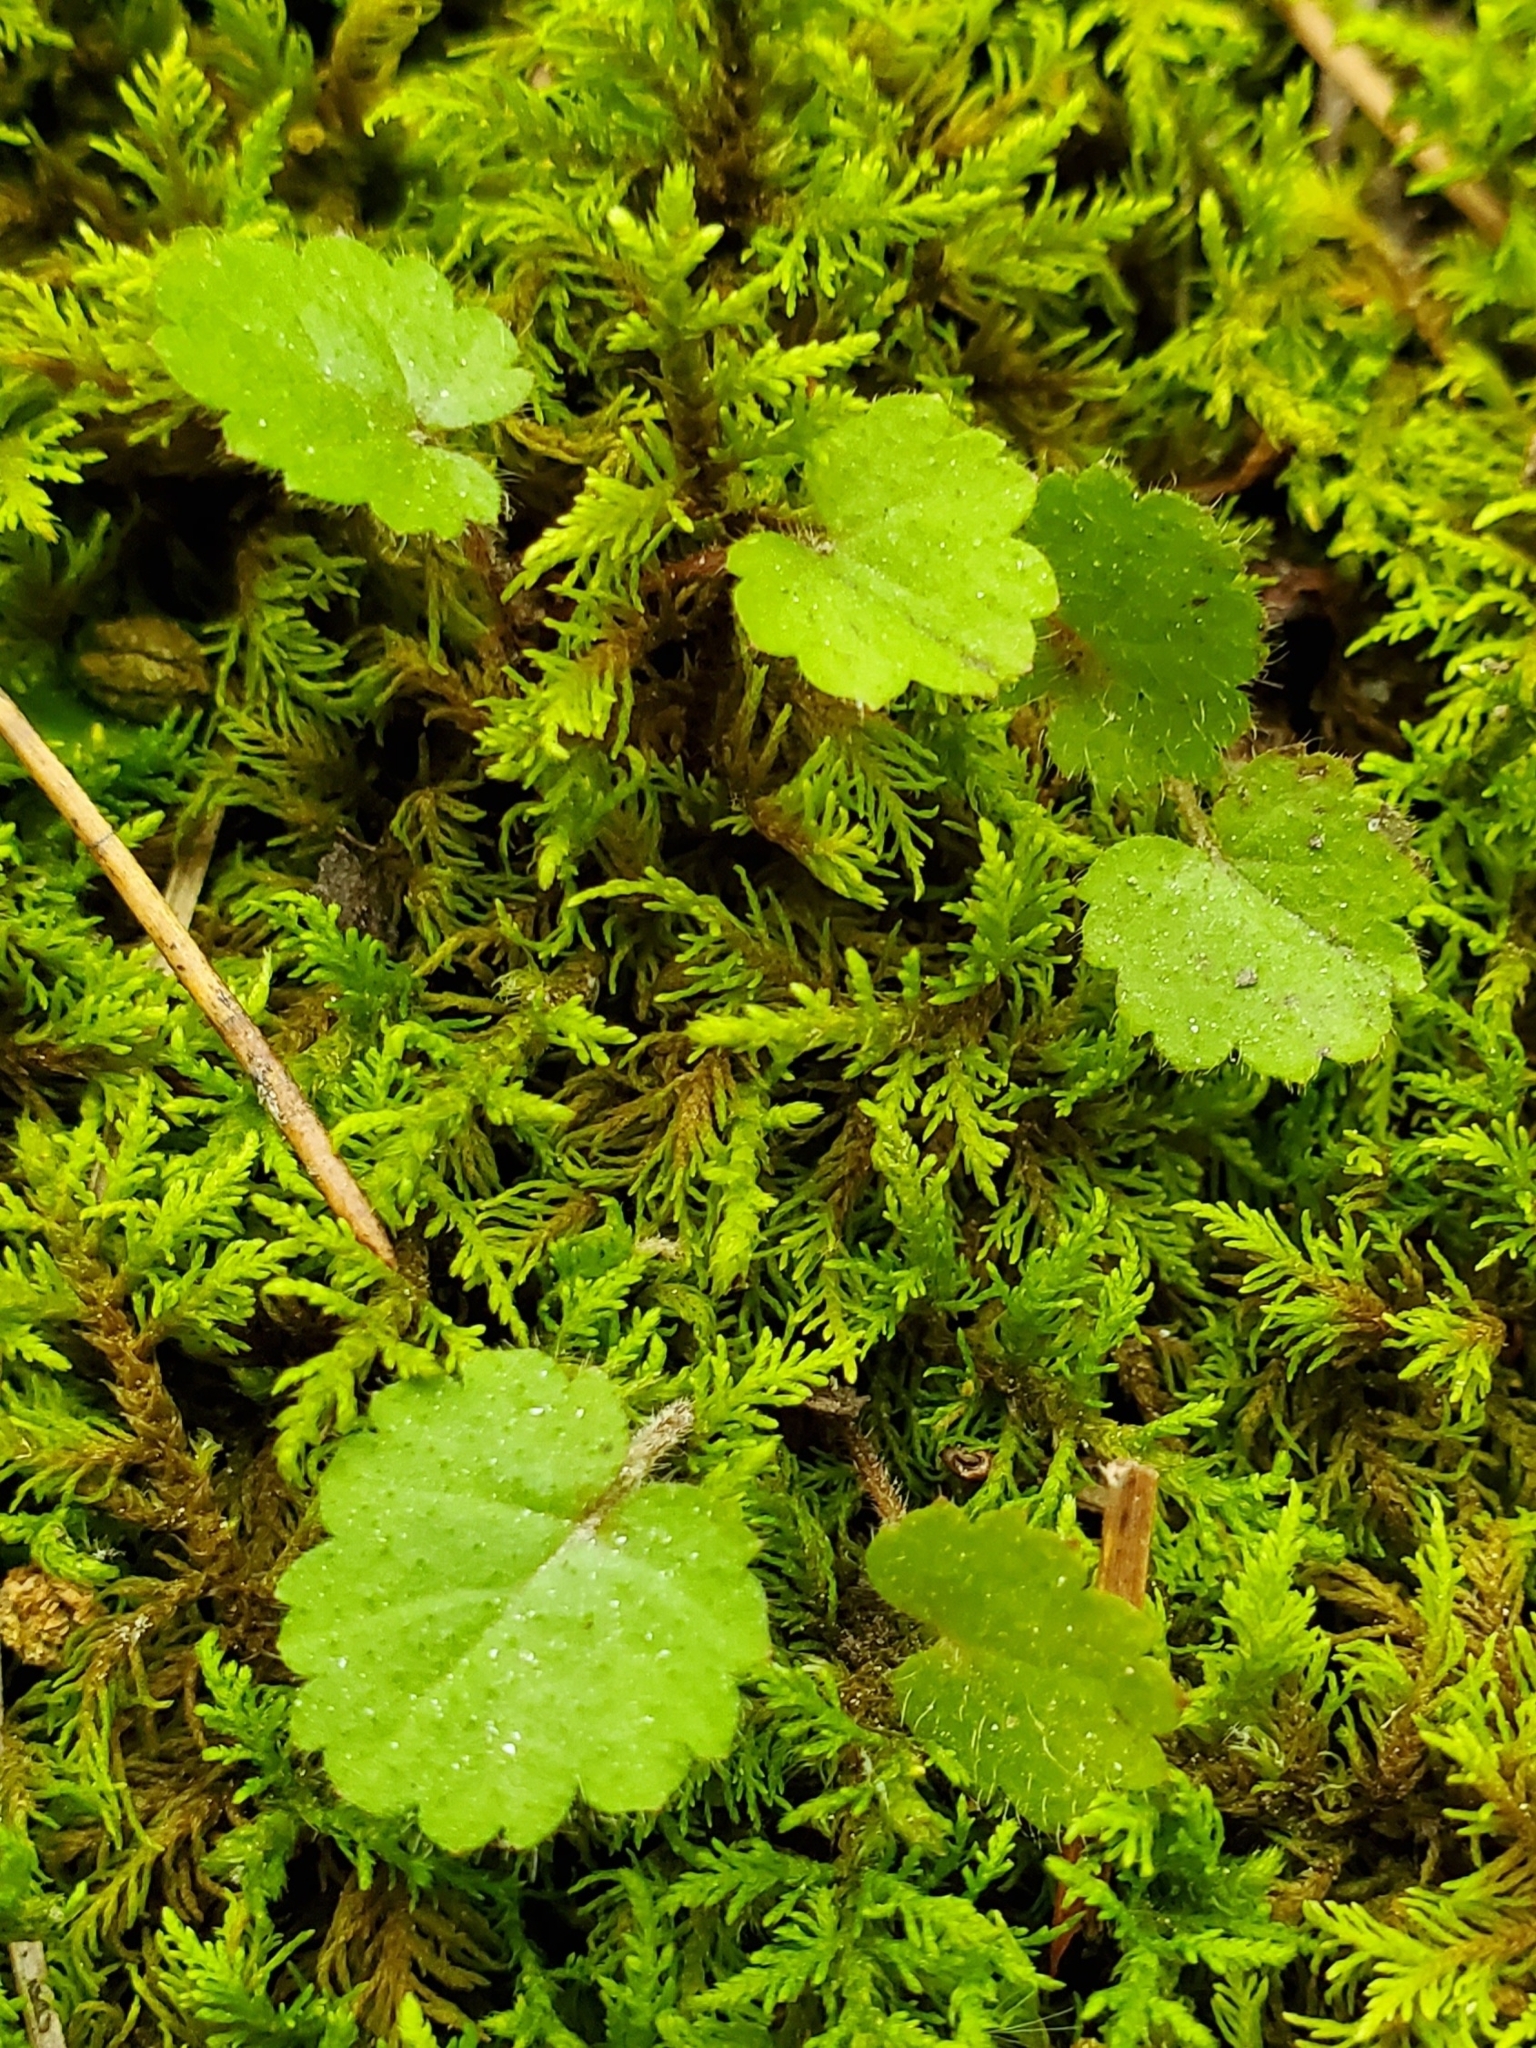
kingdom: Plantae
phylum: Tracheophyta
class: Magnoliopsida
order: Lamiales
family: Lamiaceae
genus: Glechoma
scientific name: Glechoma hederacea
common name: Ground ivy
